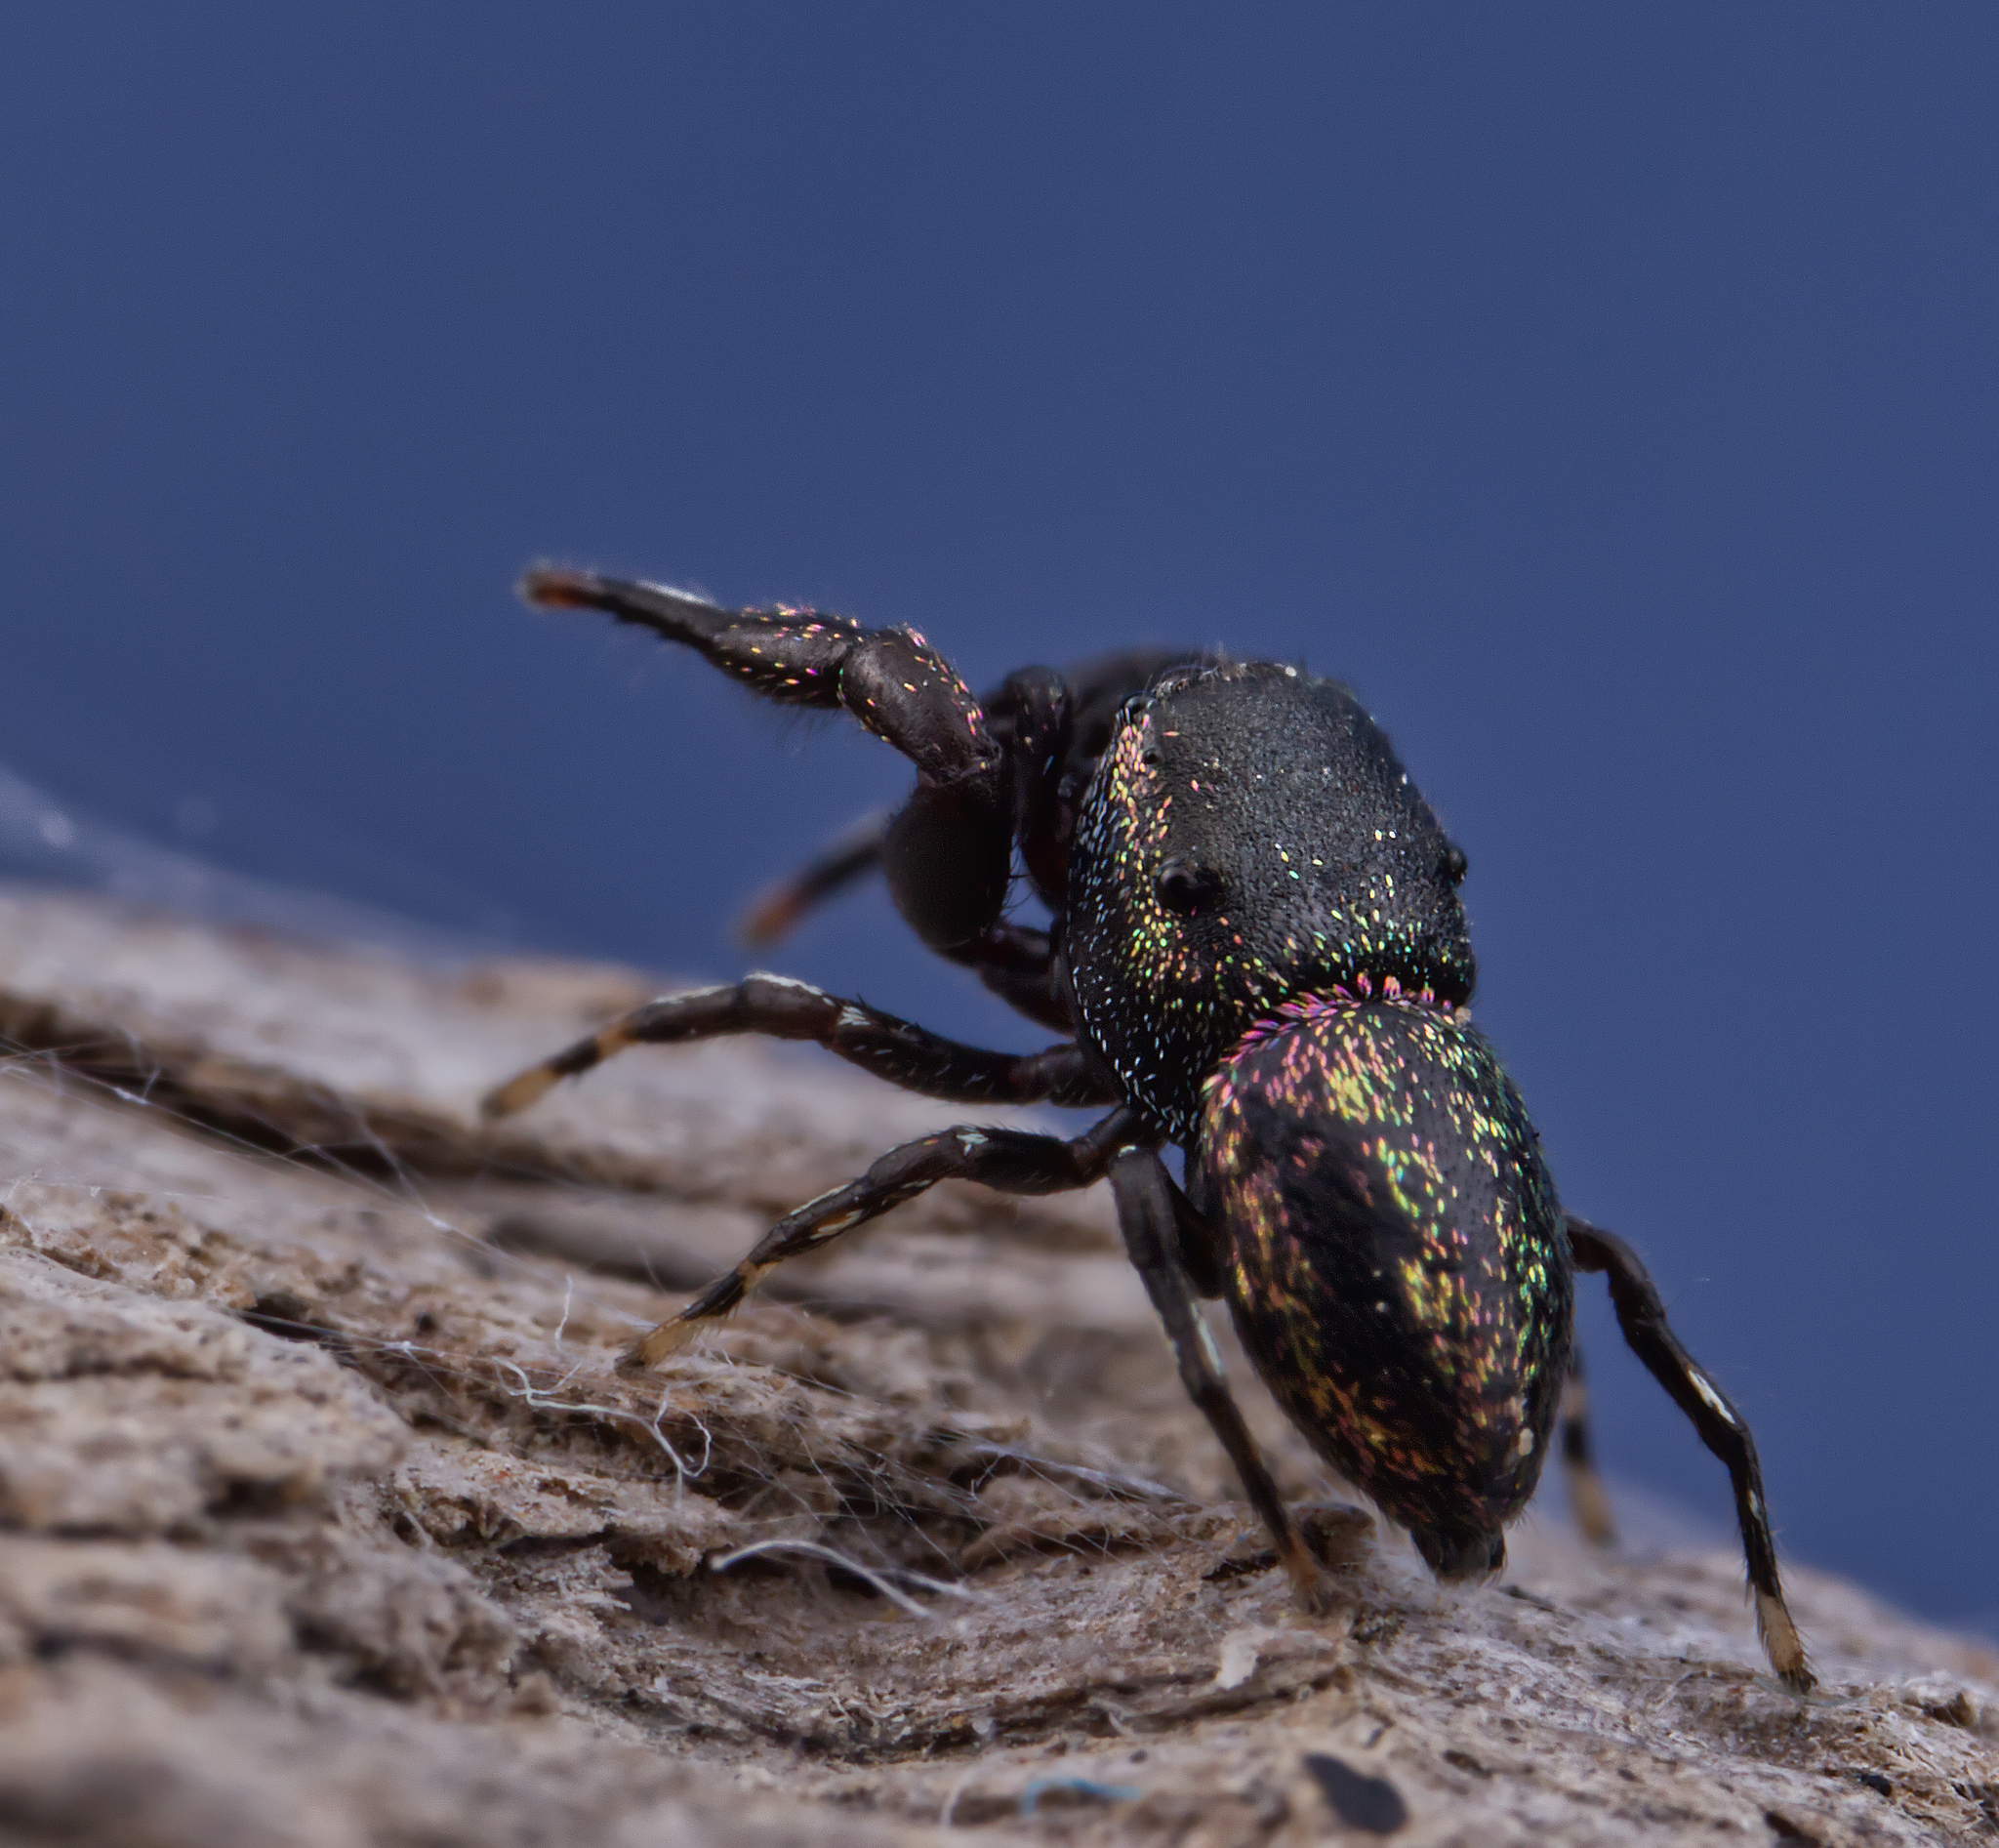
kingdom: Animalia
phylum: Arthropoda
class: Arachnida
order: Araneae
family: Salticidae
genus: Sassacus
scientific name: Sassacus cyaneus
